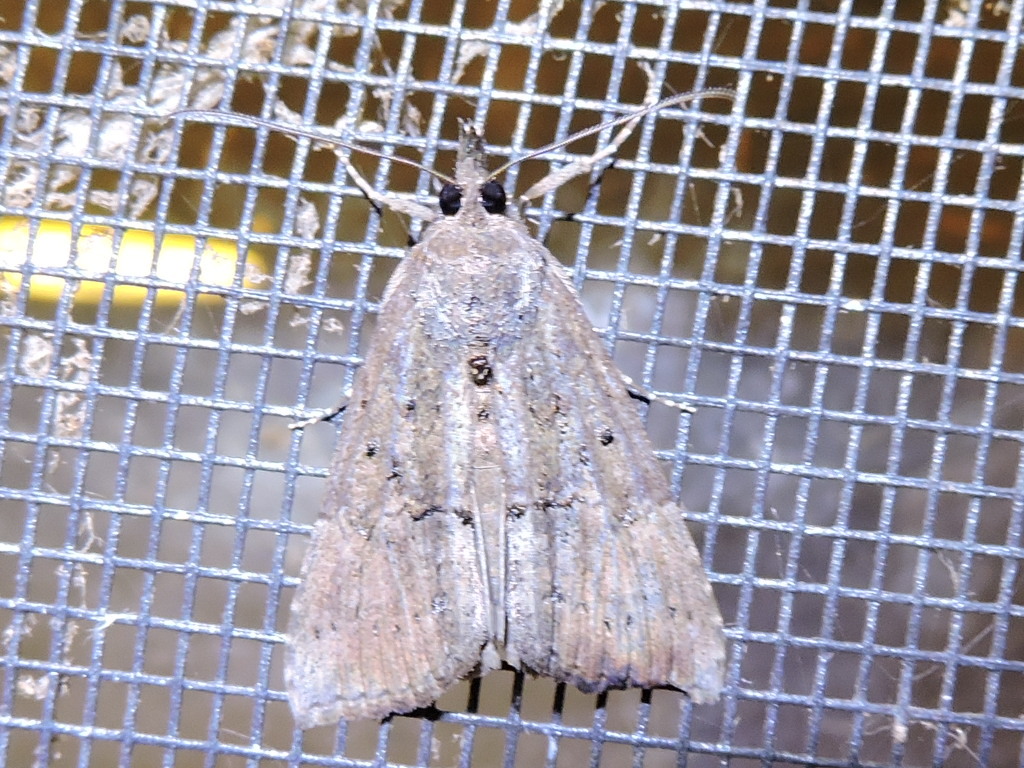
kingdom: Animalia
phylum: Arthropoda
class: Insecta
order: Lepidoptera
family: Erebidae
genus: Hypena
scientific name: Hypena scabra
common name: Green cloverworm
